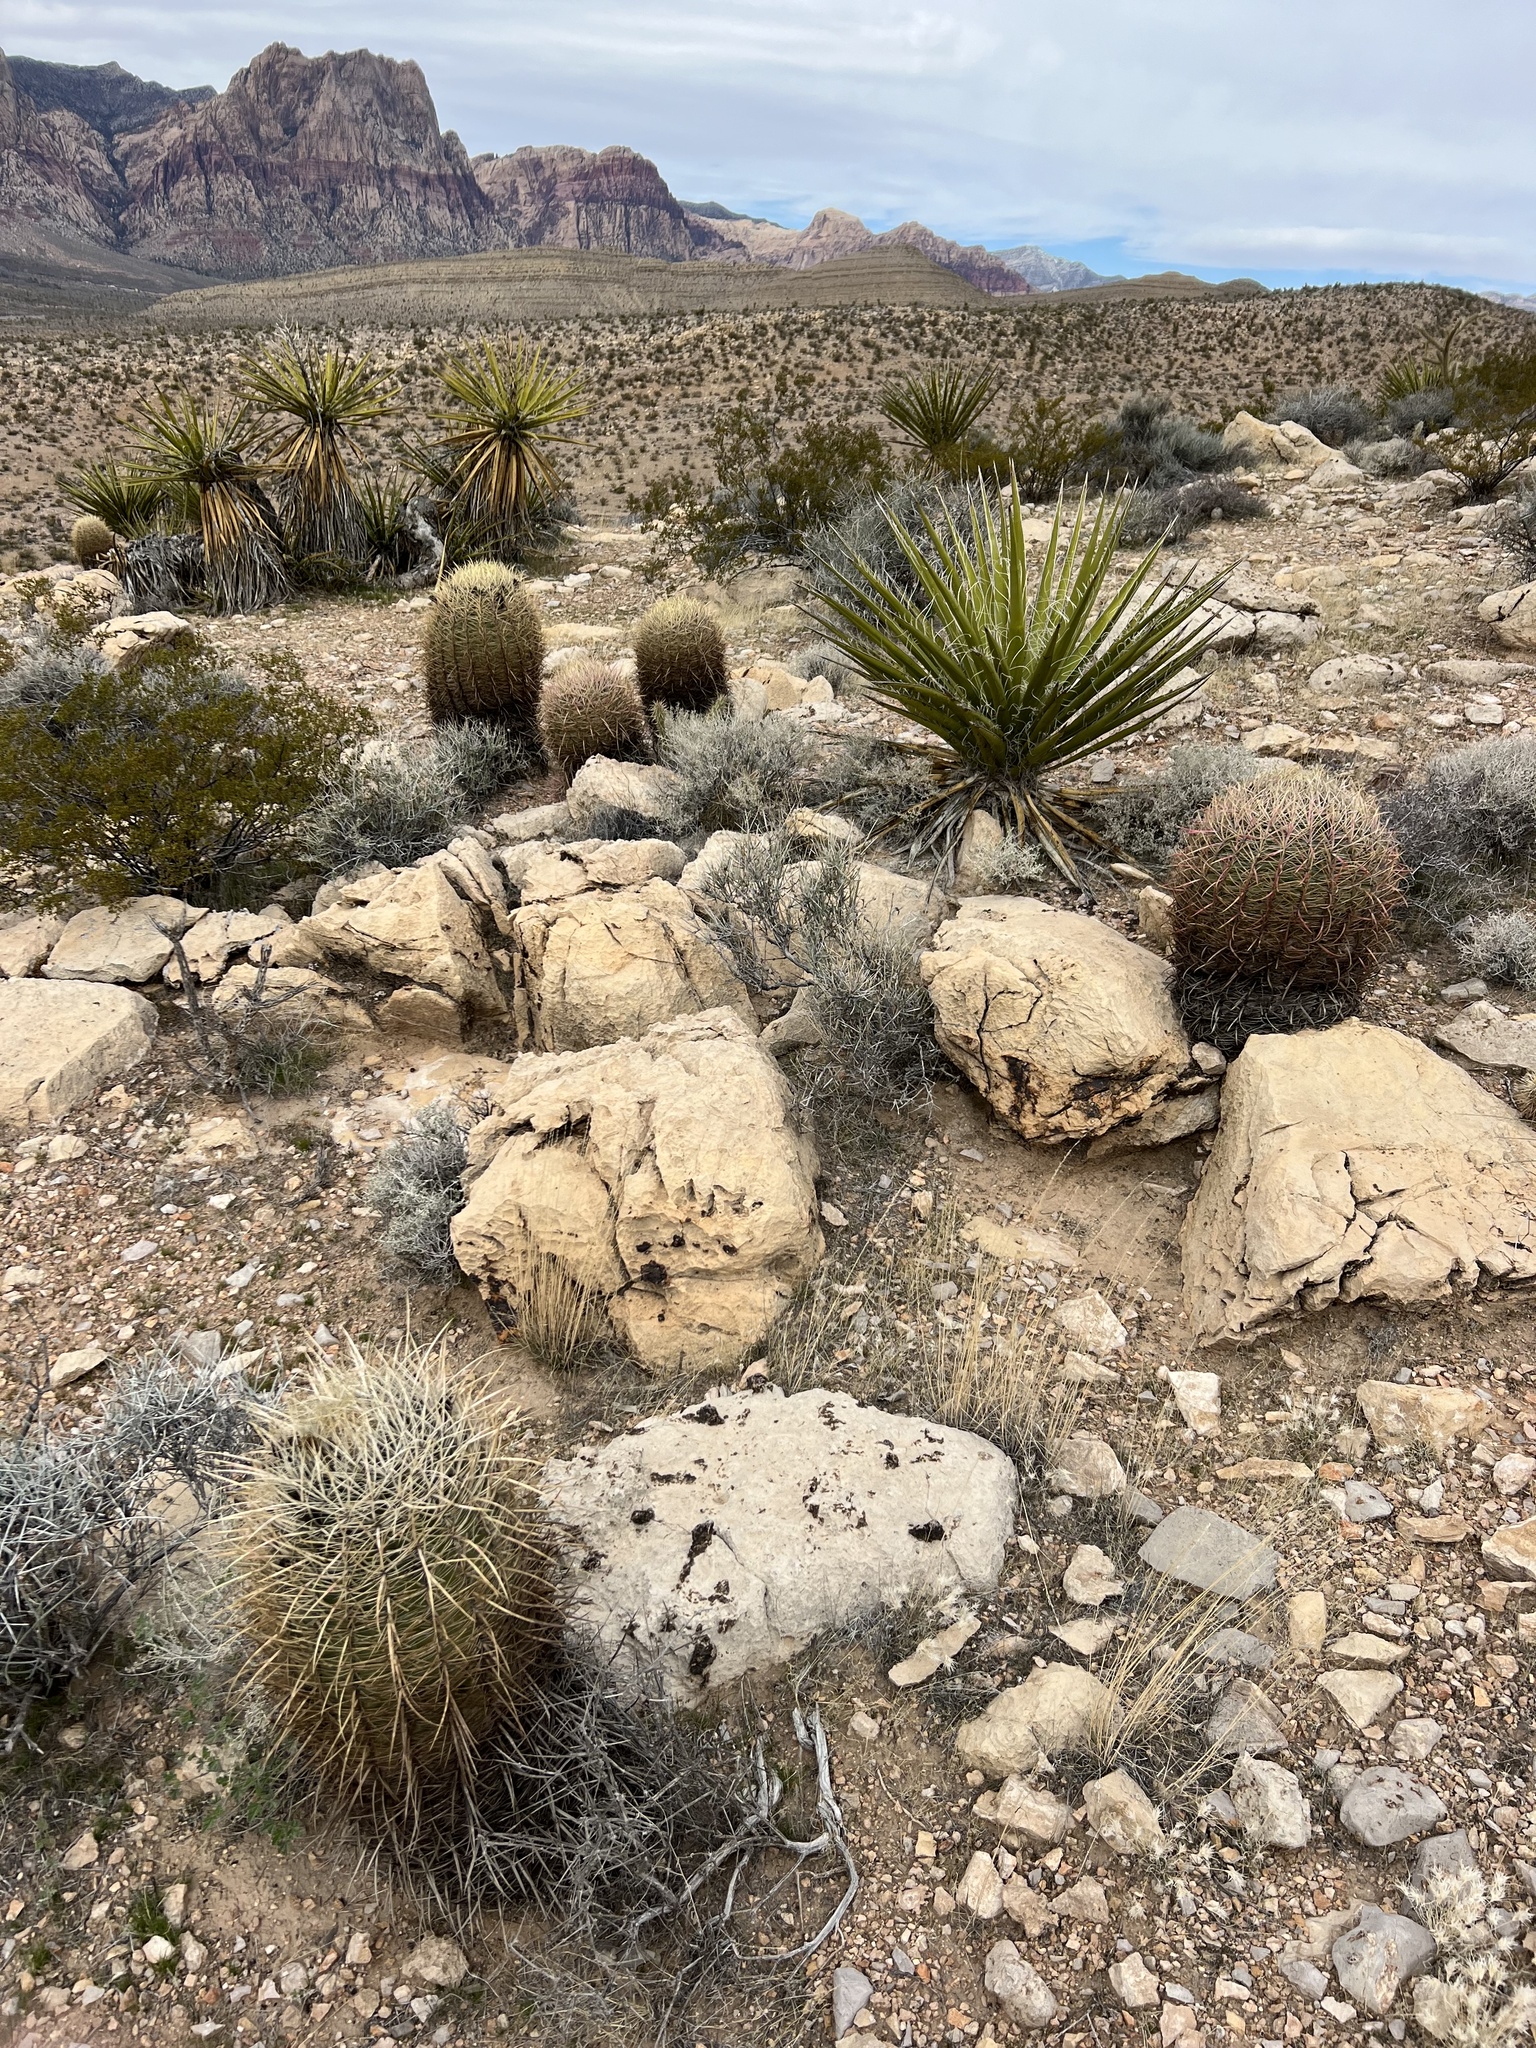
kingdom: Plantae
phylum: Tracheophyta
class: Magnoliopsida
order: Caryophyllales
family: Cactaceae
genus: Ferocactus
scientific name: Ferocactus cylindraceus
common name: California barrel cactus
